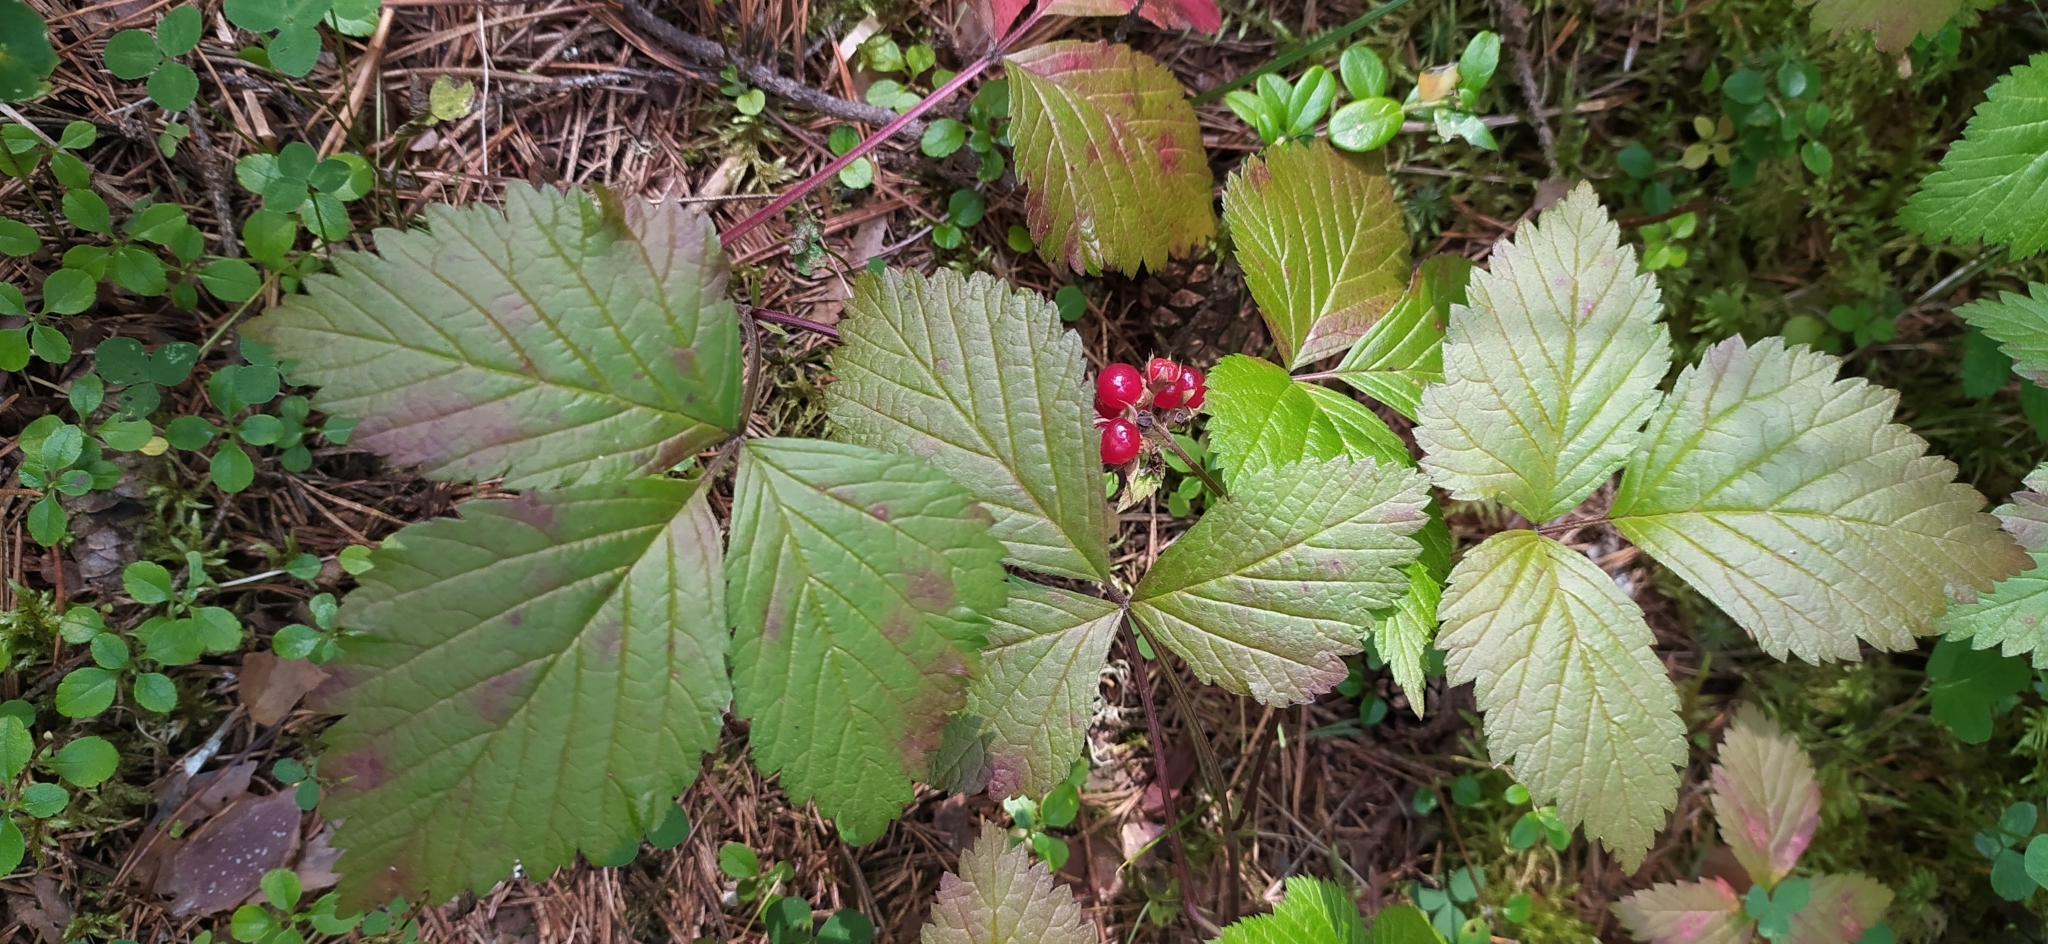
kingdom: Plantae
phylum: Tracheophyta
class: Magnoliopsida
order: Rosales
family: Rosaceae
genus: Rubus
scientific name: Rubus saxatilis
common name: Stone bramble
